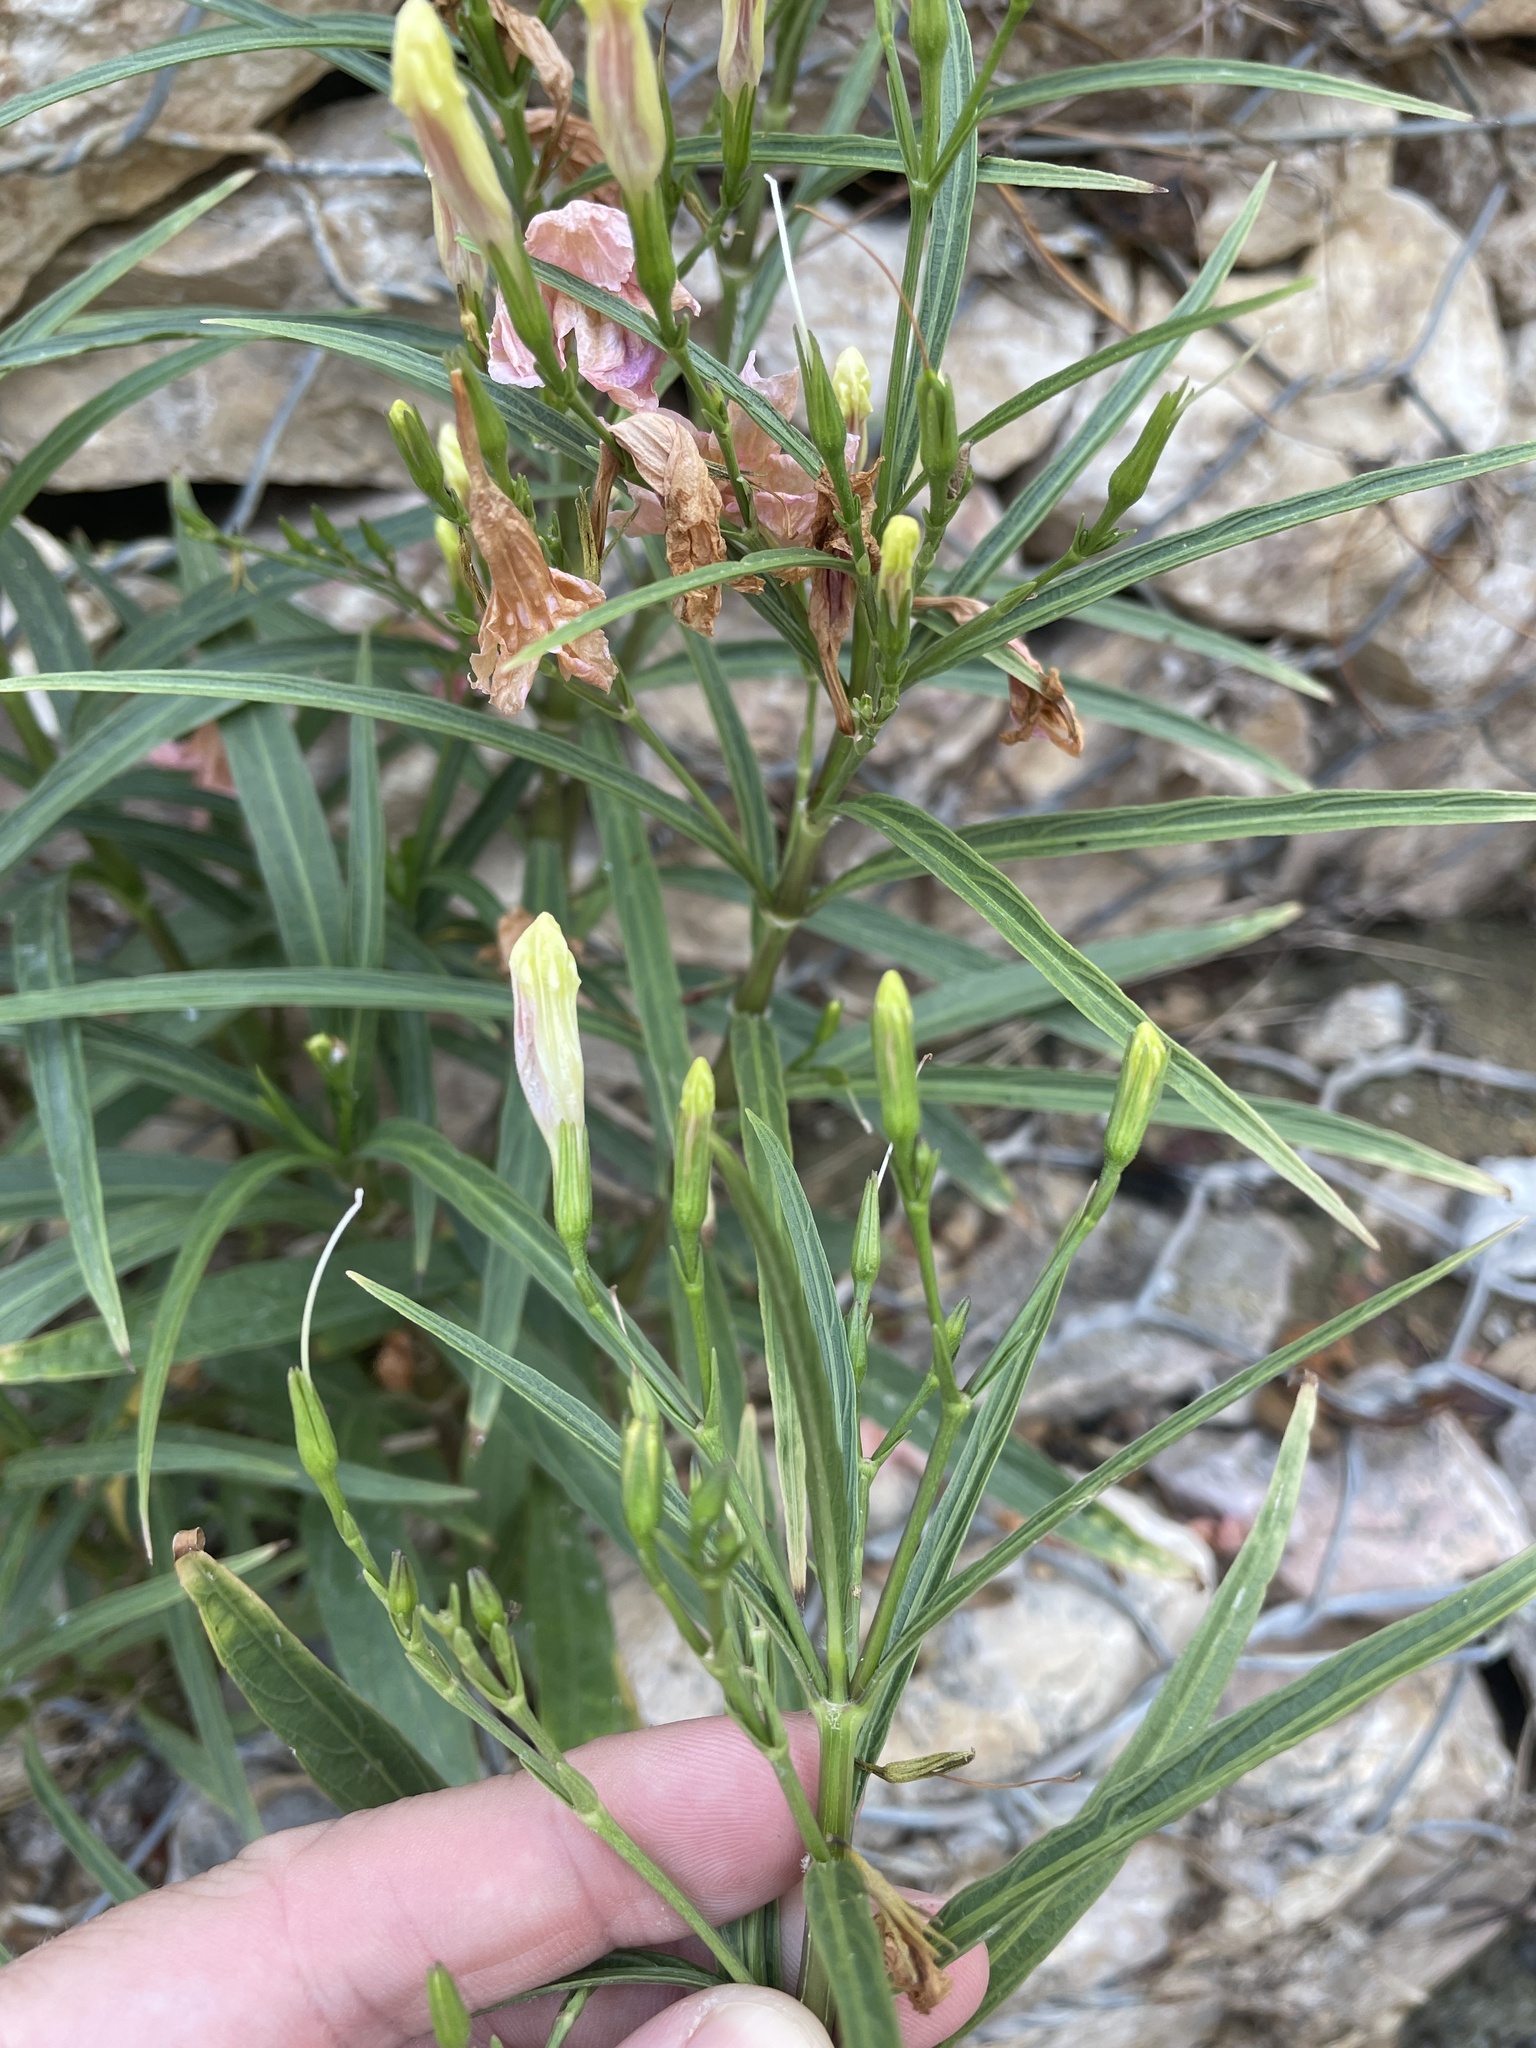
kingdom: Plantae
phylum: Tracheophyta
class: Magnoliopsida
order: Lamiales
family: Acanthaceae
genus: Ruellia
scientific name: Ruellia simplex
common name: Softseed wild petunia
